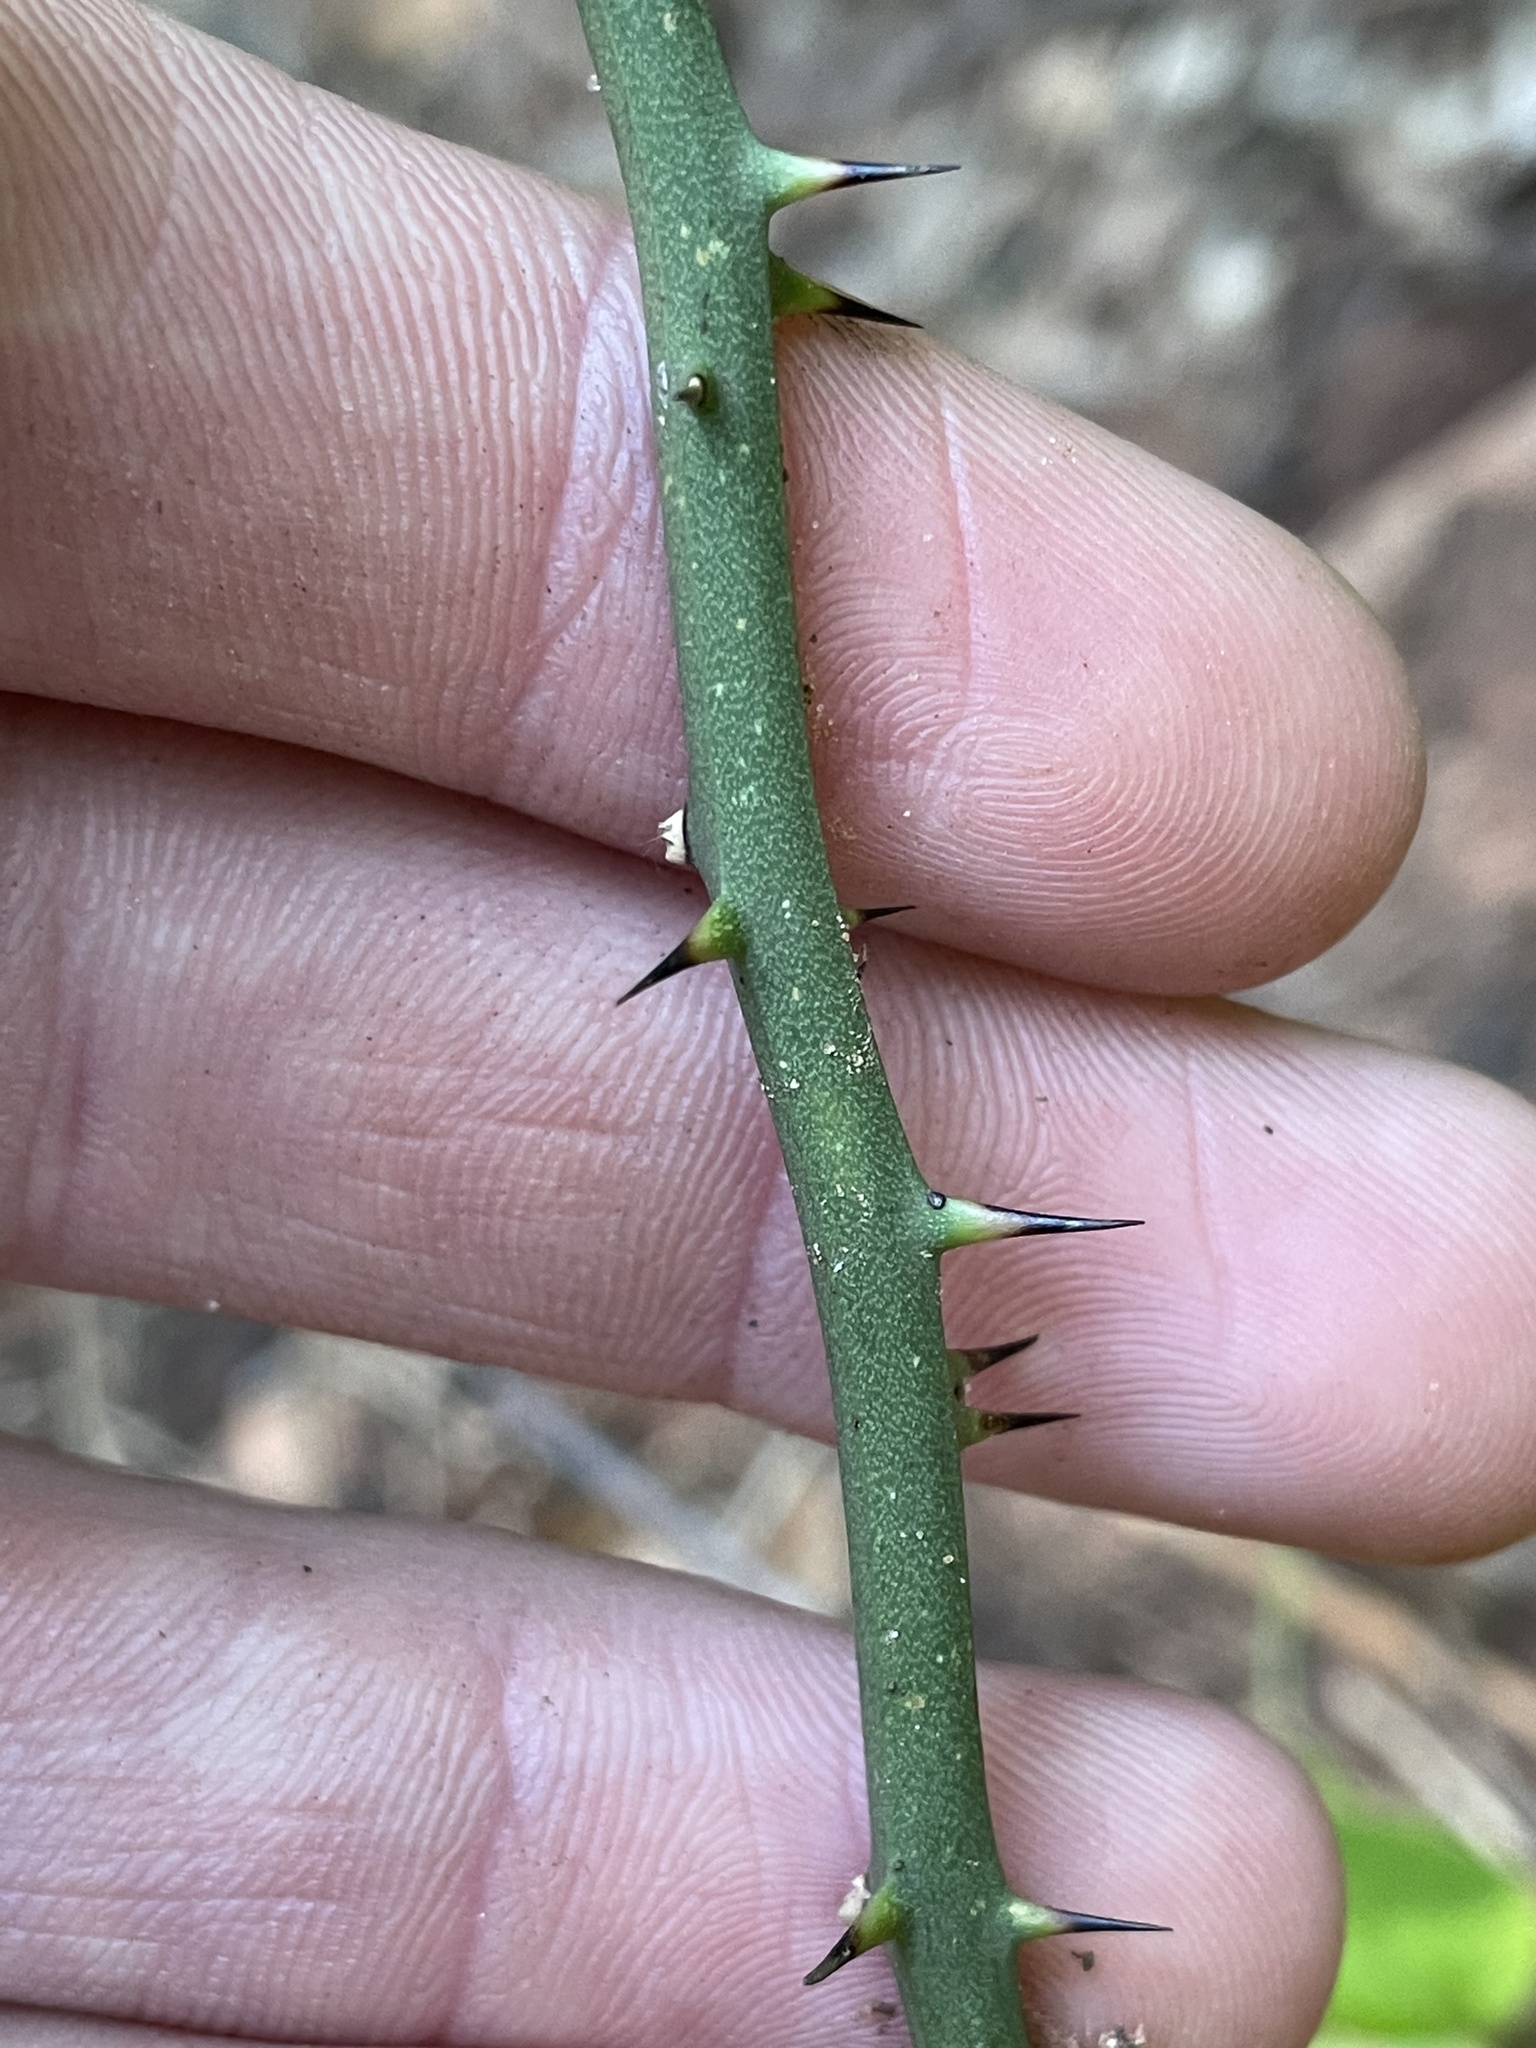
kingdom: Plantae
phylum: Tracheophyta
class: Liliopsida
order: Liliales
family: Smilacaceae
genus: Smilax
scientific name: Smilax bona-nox
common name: Catbrier
